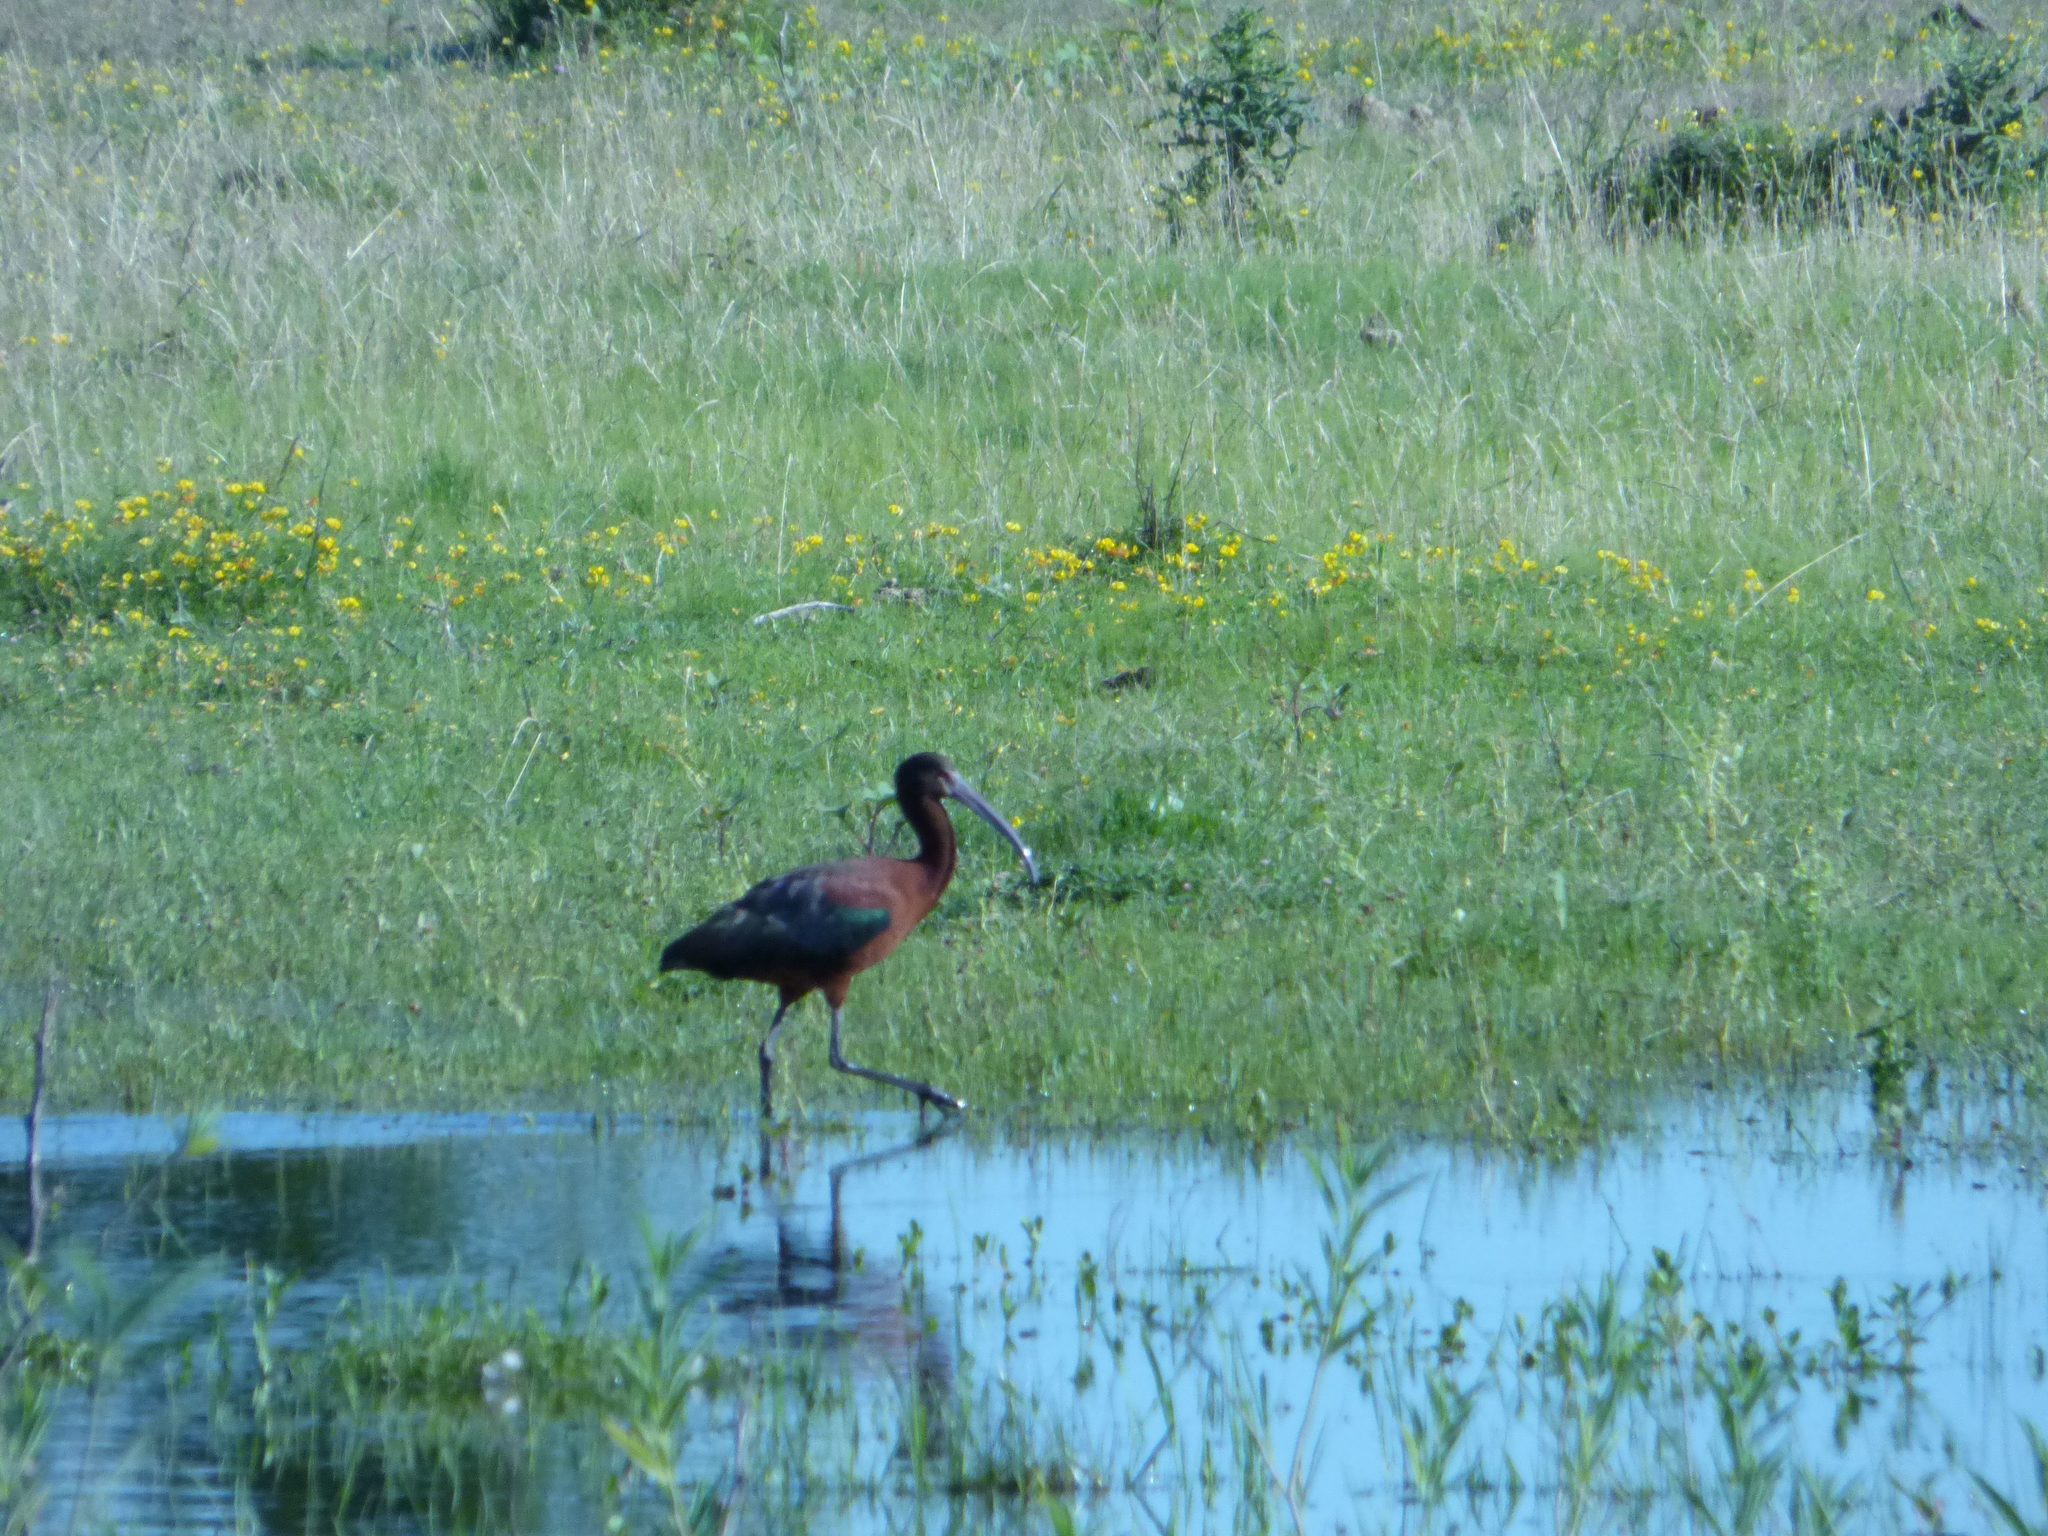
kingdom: Animalia
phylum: Chordata
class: Aves
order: Pelecaniformes
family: Threskiornithidae
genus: Plegadis
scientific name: Plegadis chihi
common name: White-faced ibis
